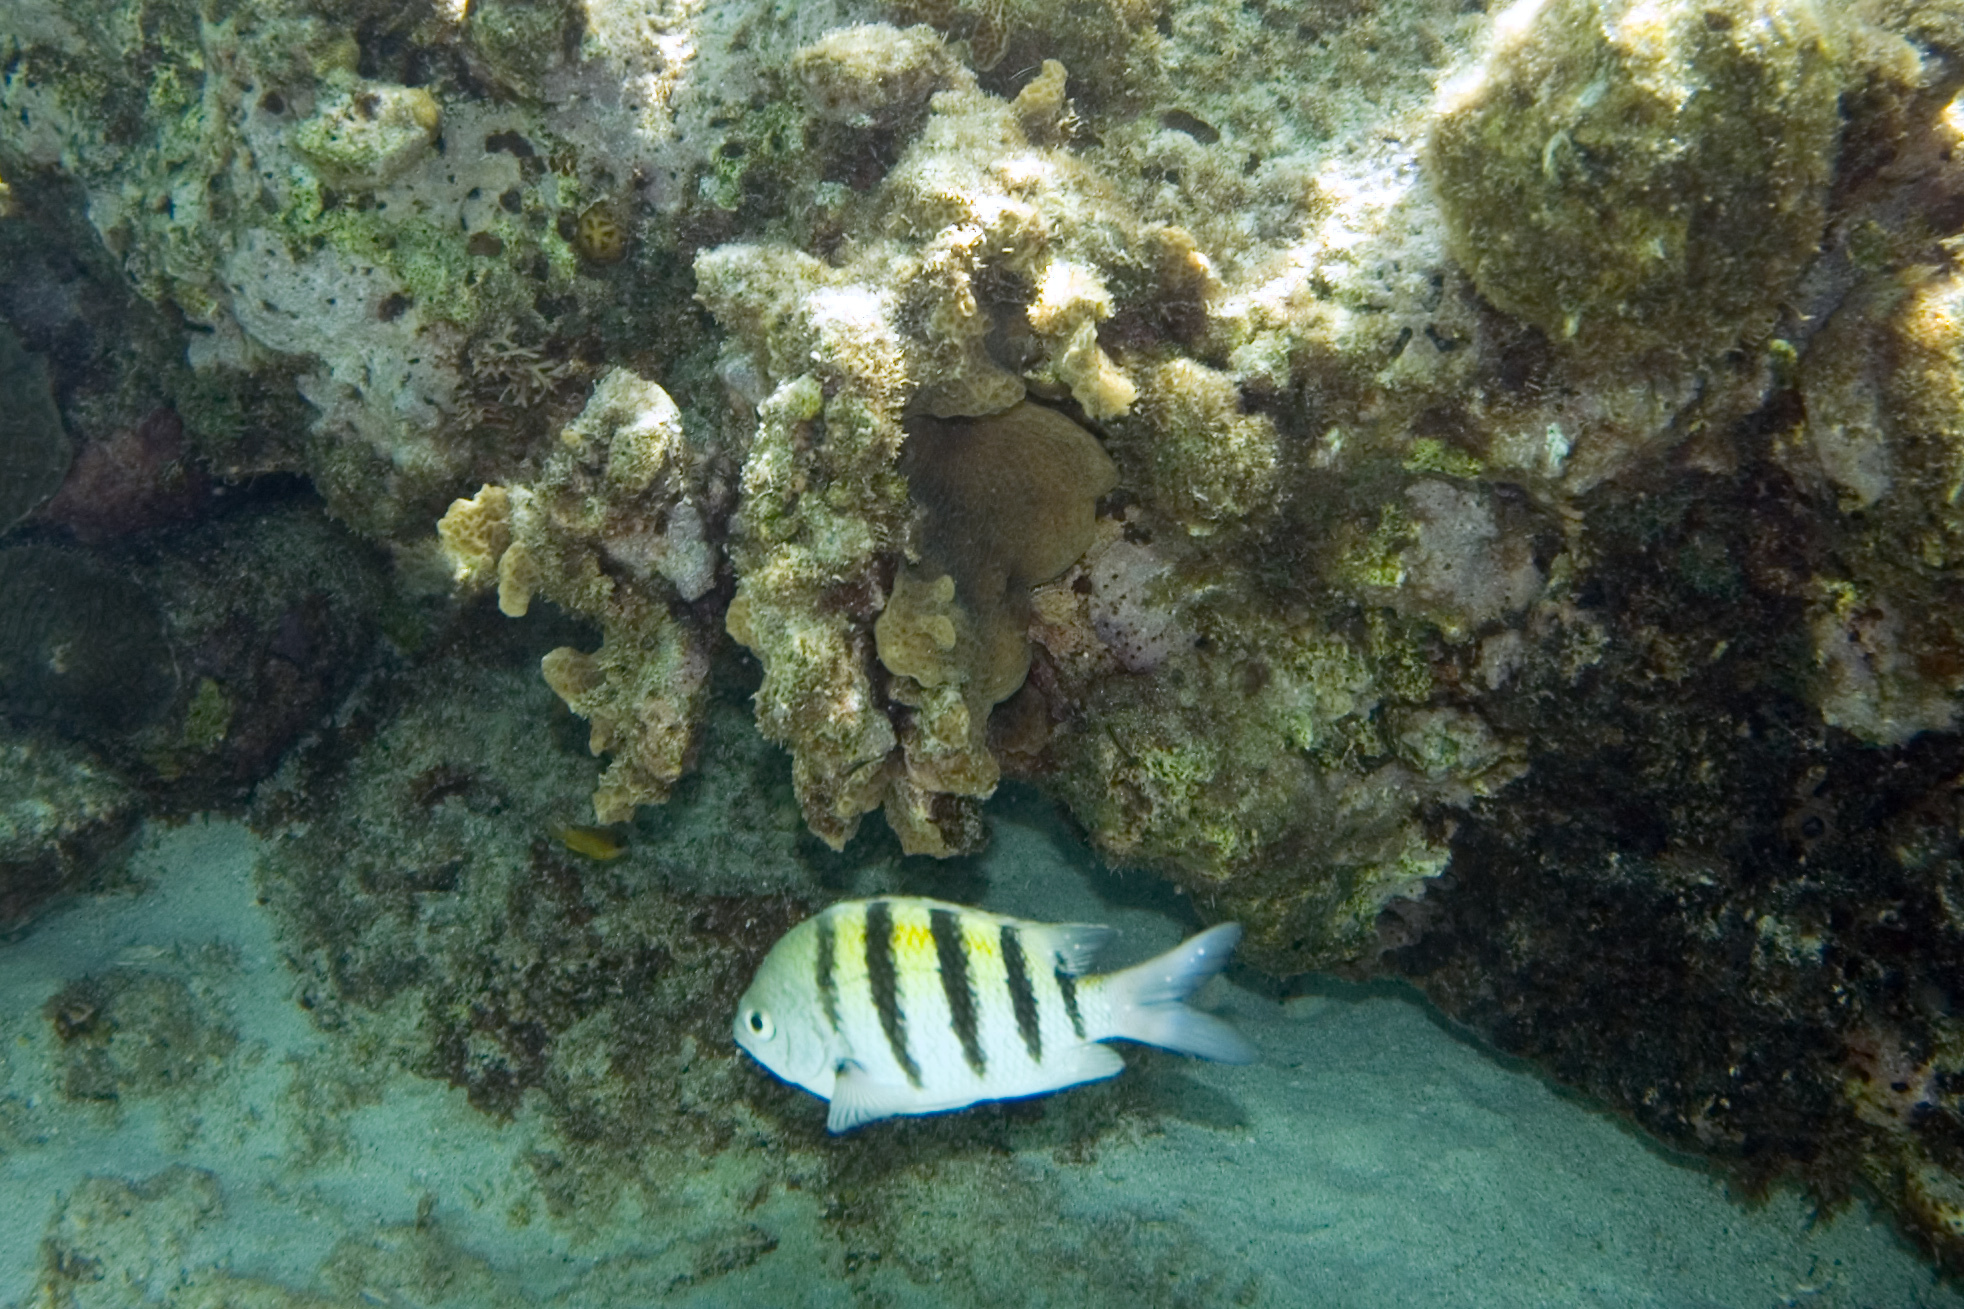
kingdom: Animalia
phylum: Chordata
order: Perciformes
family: Pomacentridae
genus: Abudefduf
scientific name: Abudefduf saxatilis
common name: Sergeant major
